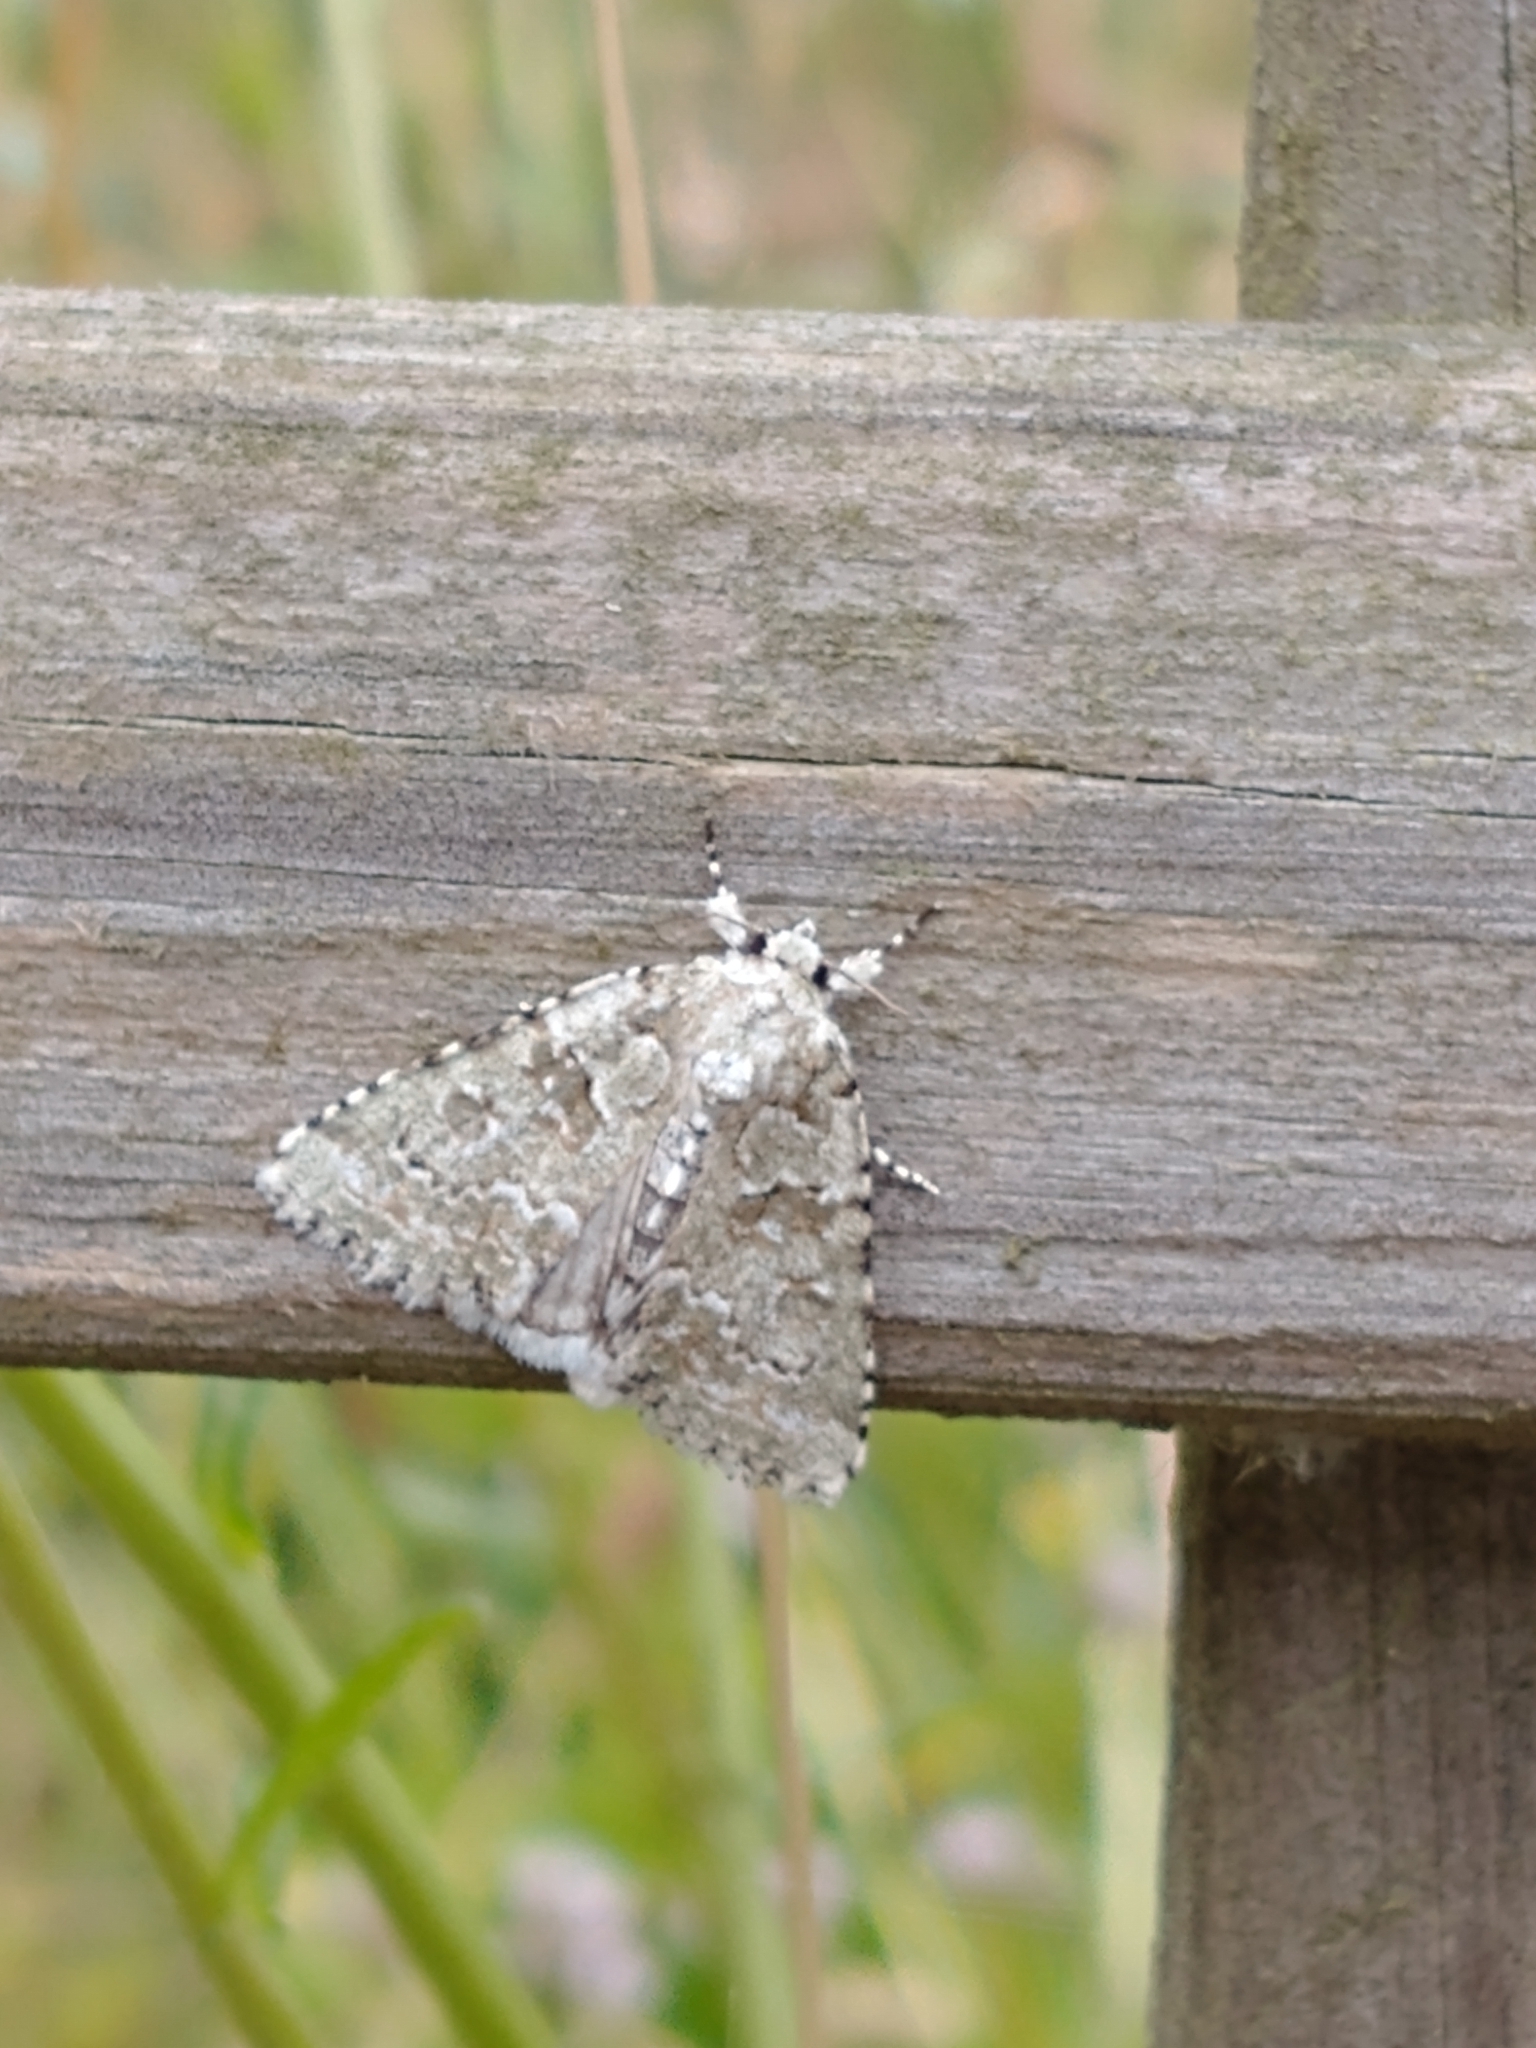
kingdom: Animalia
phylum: Arthropoda
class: Insecta
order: Lepidoptera
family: Noctuidae
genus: Nyctobrya
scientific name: Nyctobrya muralis
